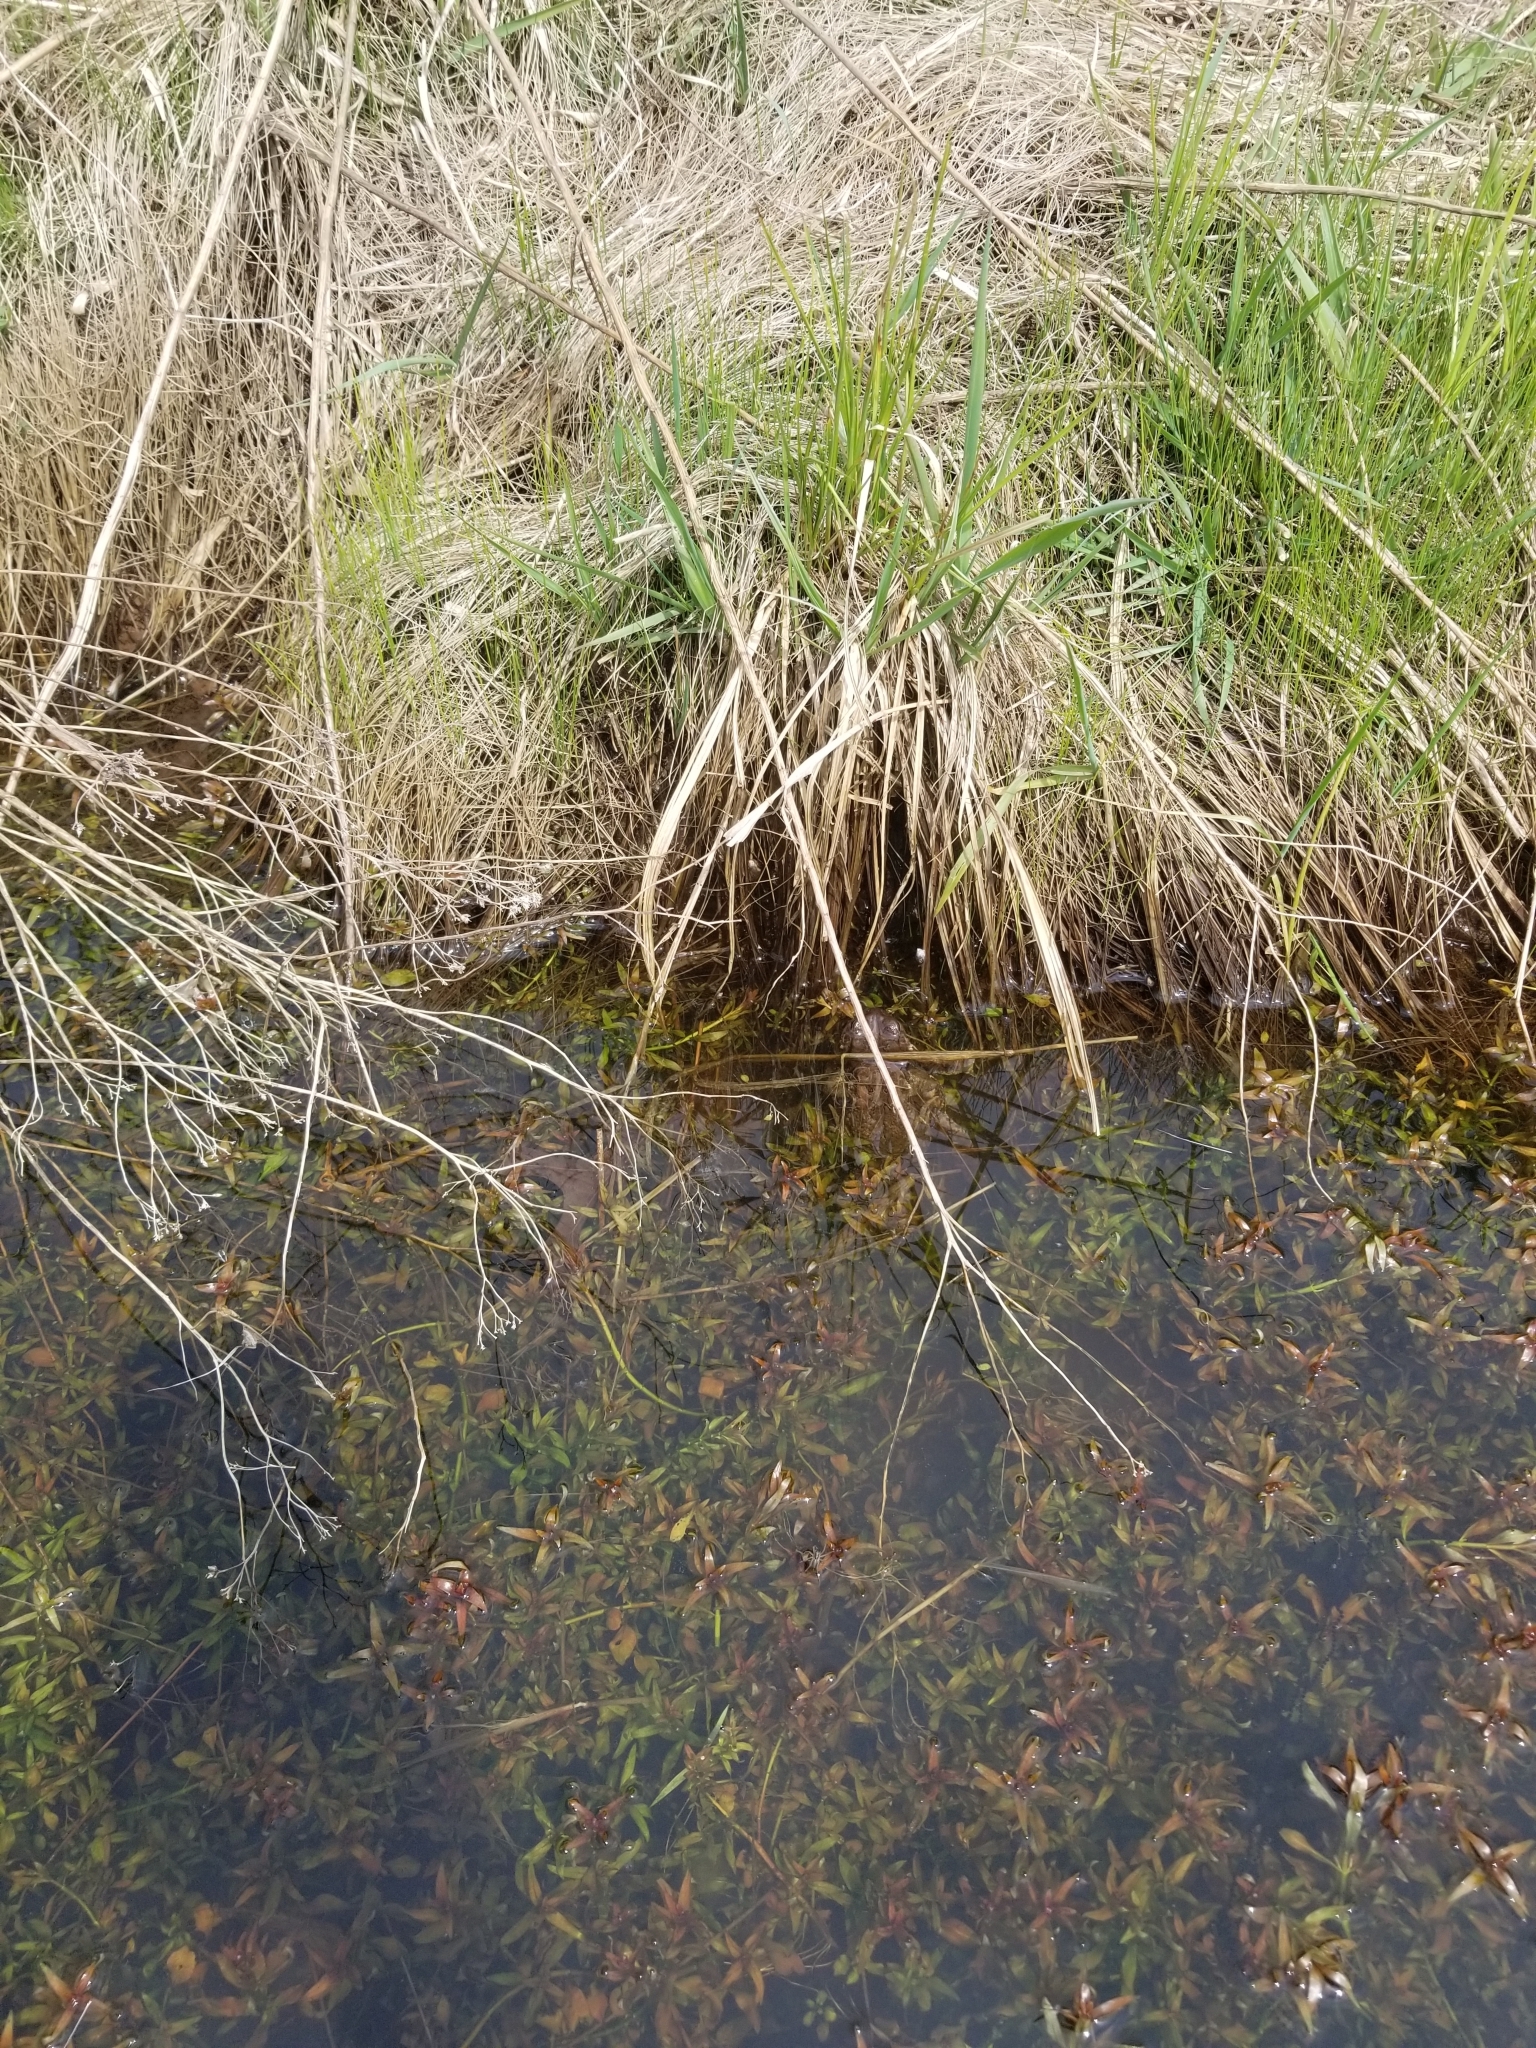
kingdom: Animalia
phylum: Chordata
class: Amphibia
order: Anura
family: Bufonidae
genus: Anaxyrus
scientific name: Anaxyrus americanus
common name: American toad
